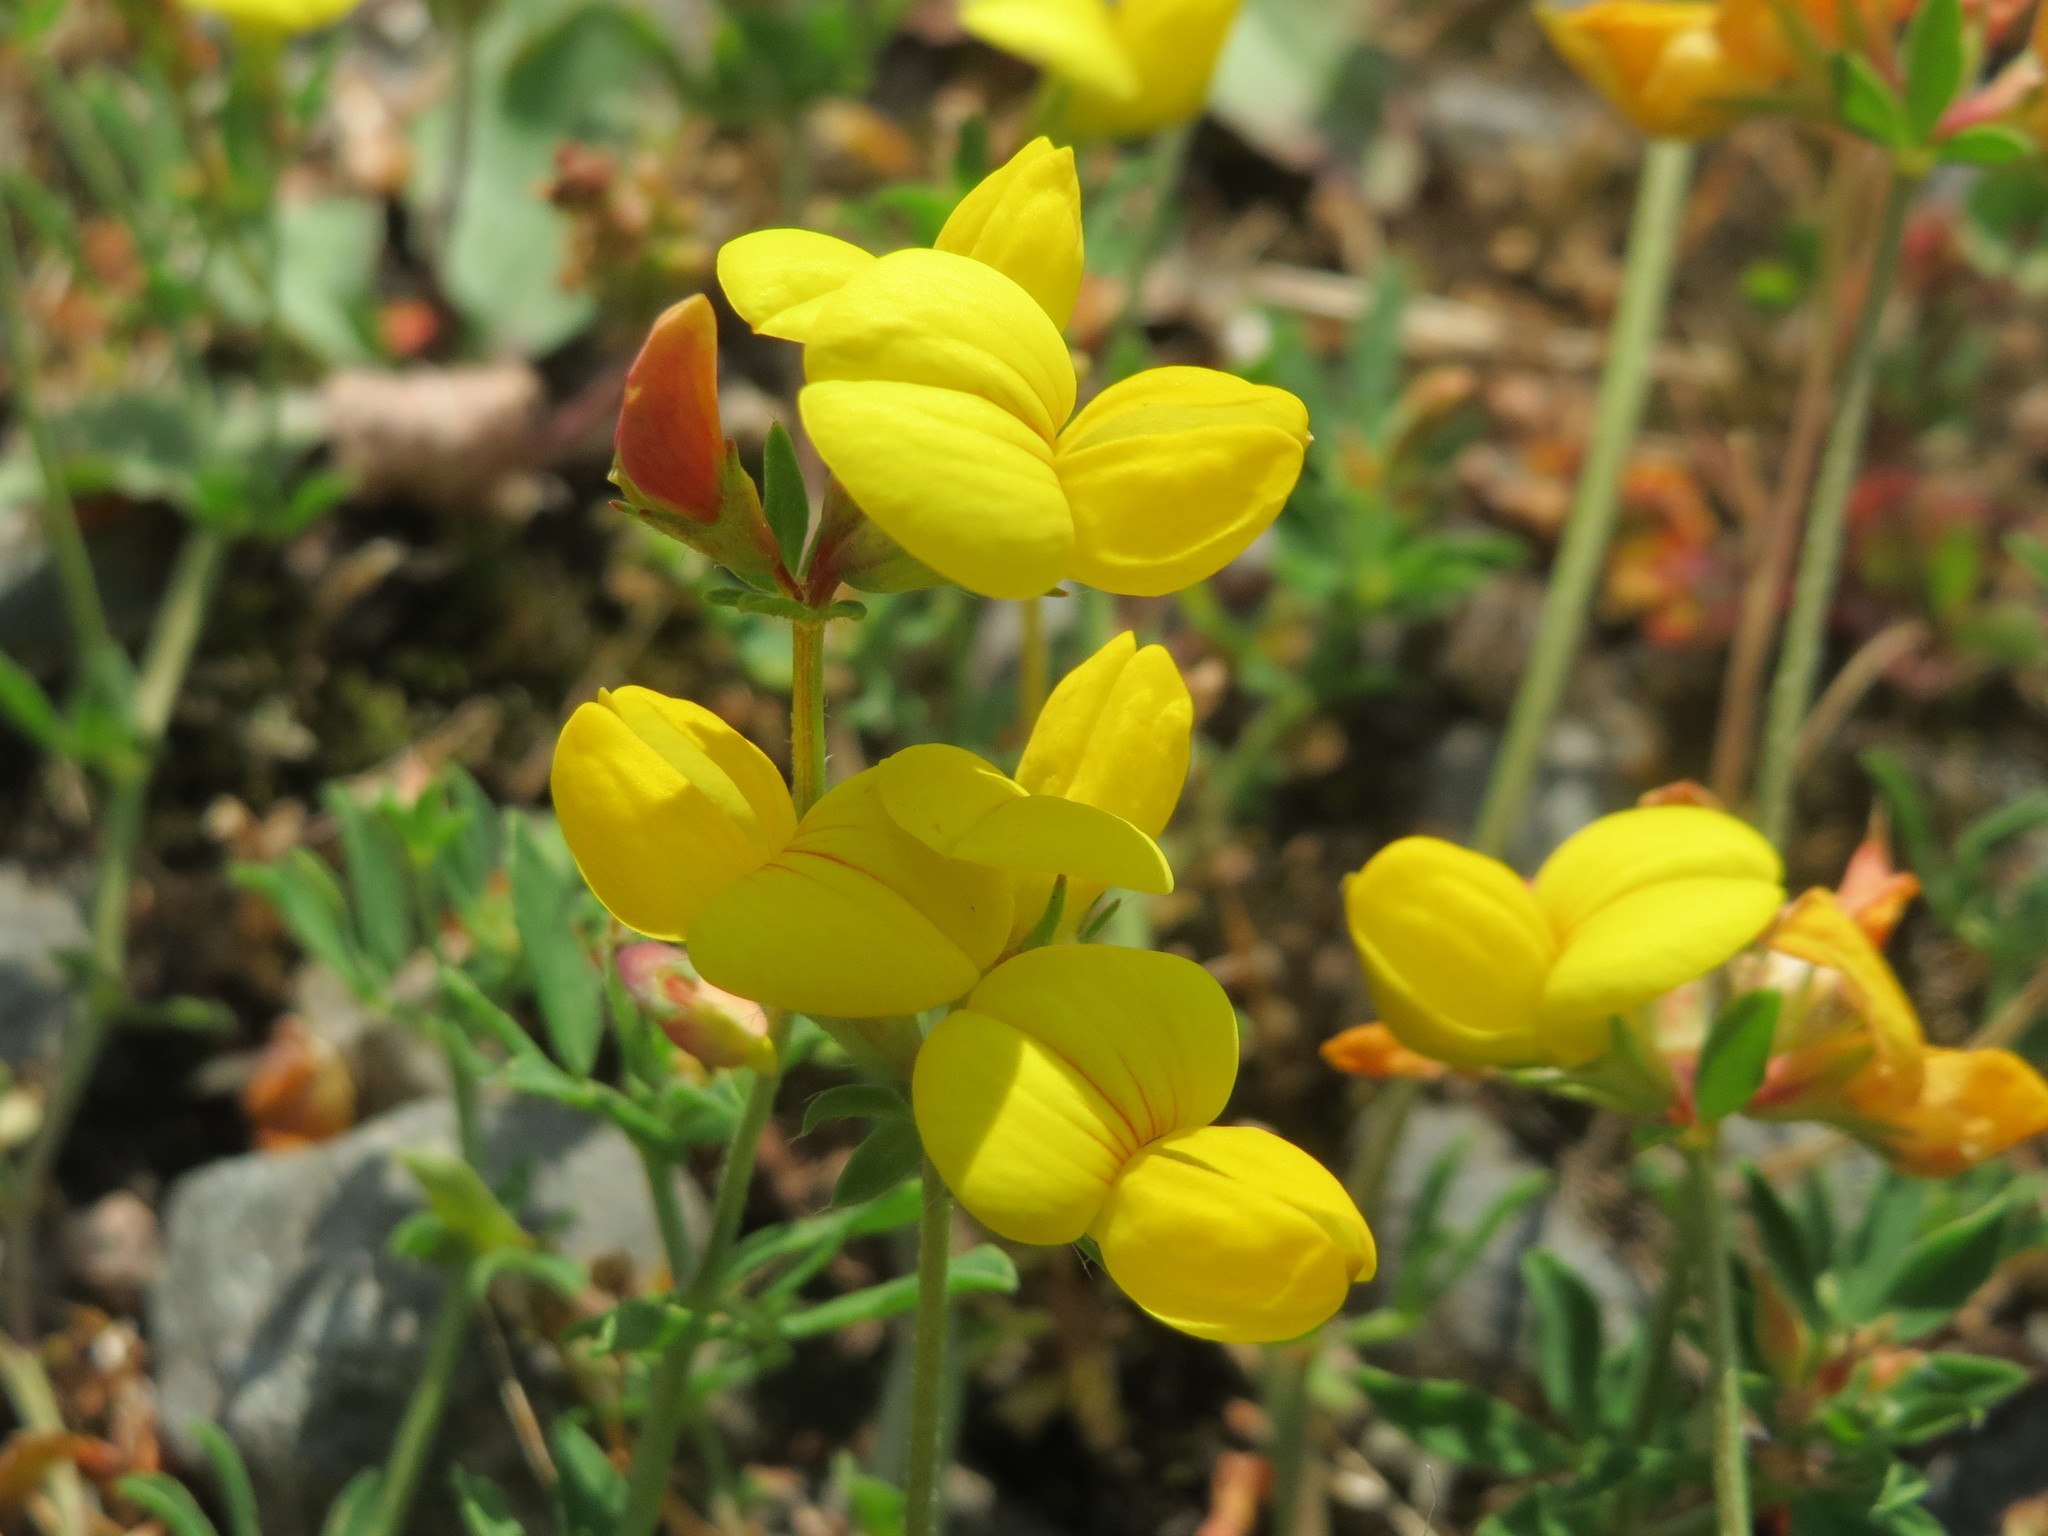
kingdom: Plantae
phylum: Tracheophyta
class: Magnoliopsida
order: Fabales
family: Fabaceae
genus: Lotus
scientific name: Lotus corniculatus
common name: Common bird's-foot-trefoil
